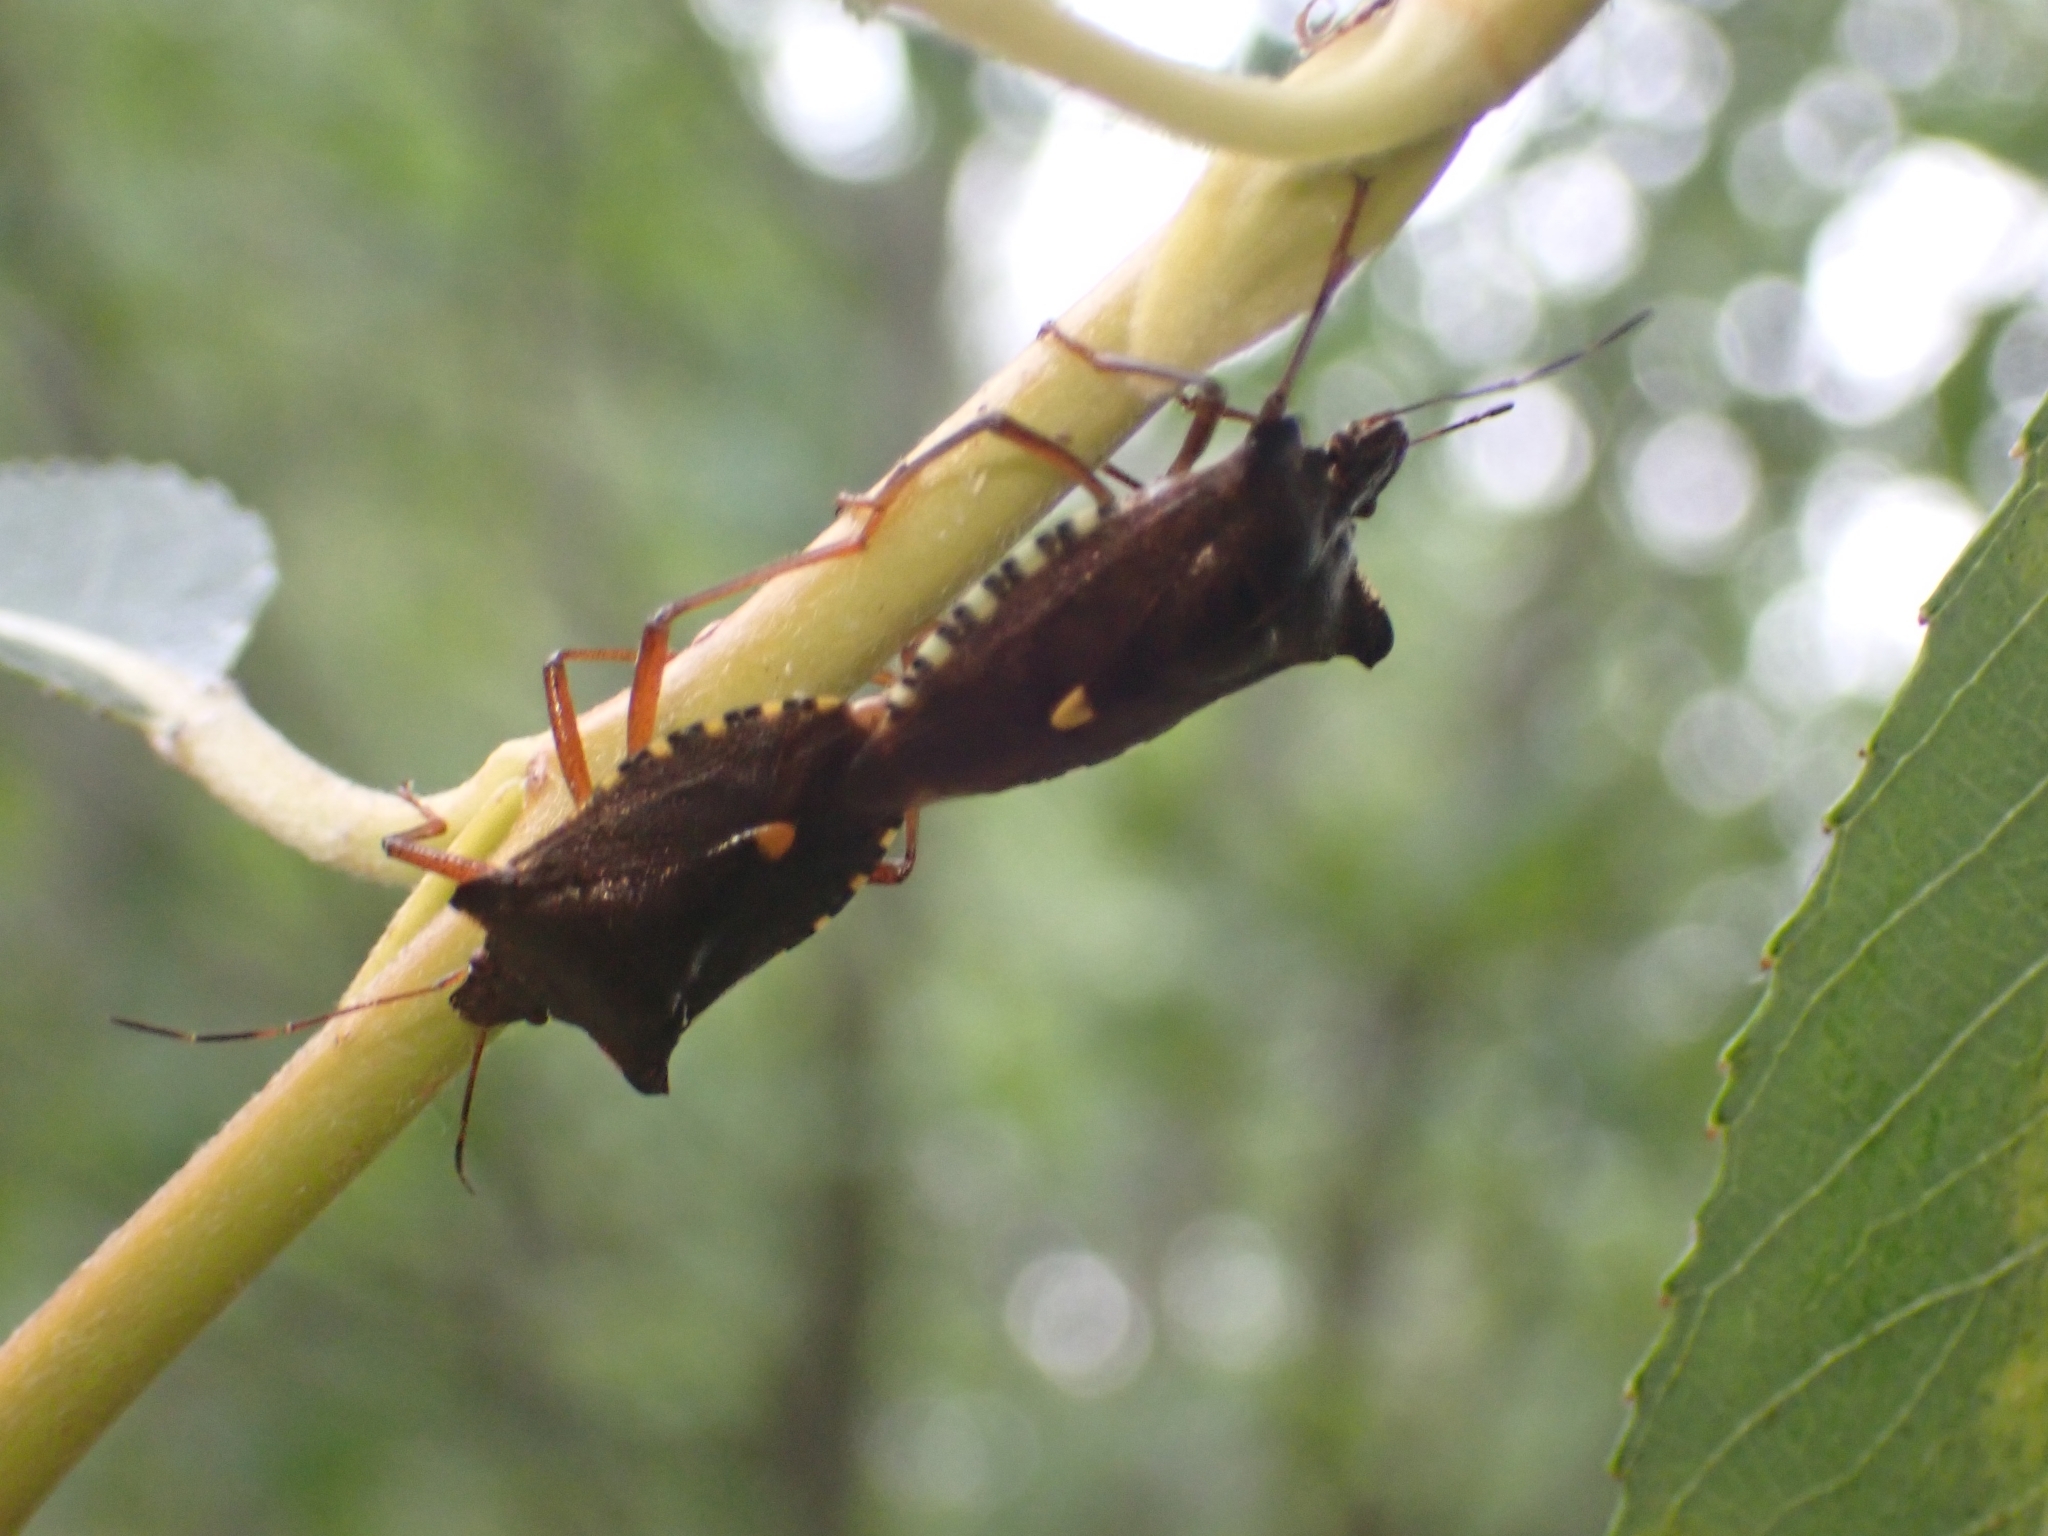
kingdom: Animalia
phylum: Arthropoda
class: Insecta
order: Hemiptera
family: Pentatomidae
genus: Pentatoma
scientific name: Pentatoma rufipes
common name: Forest bug
